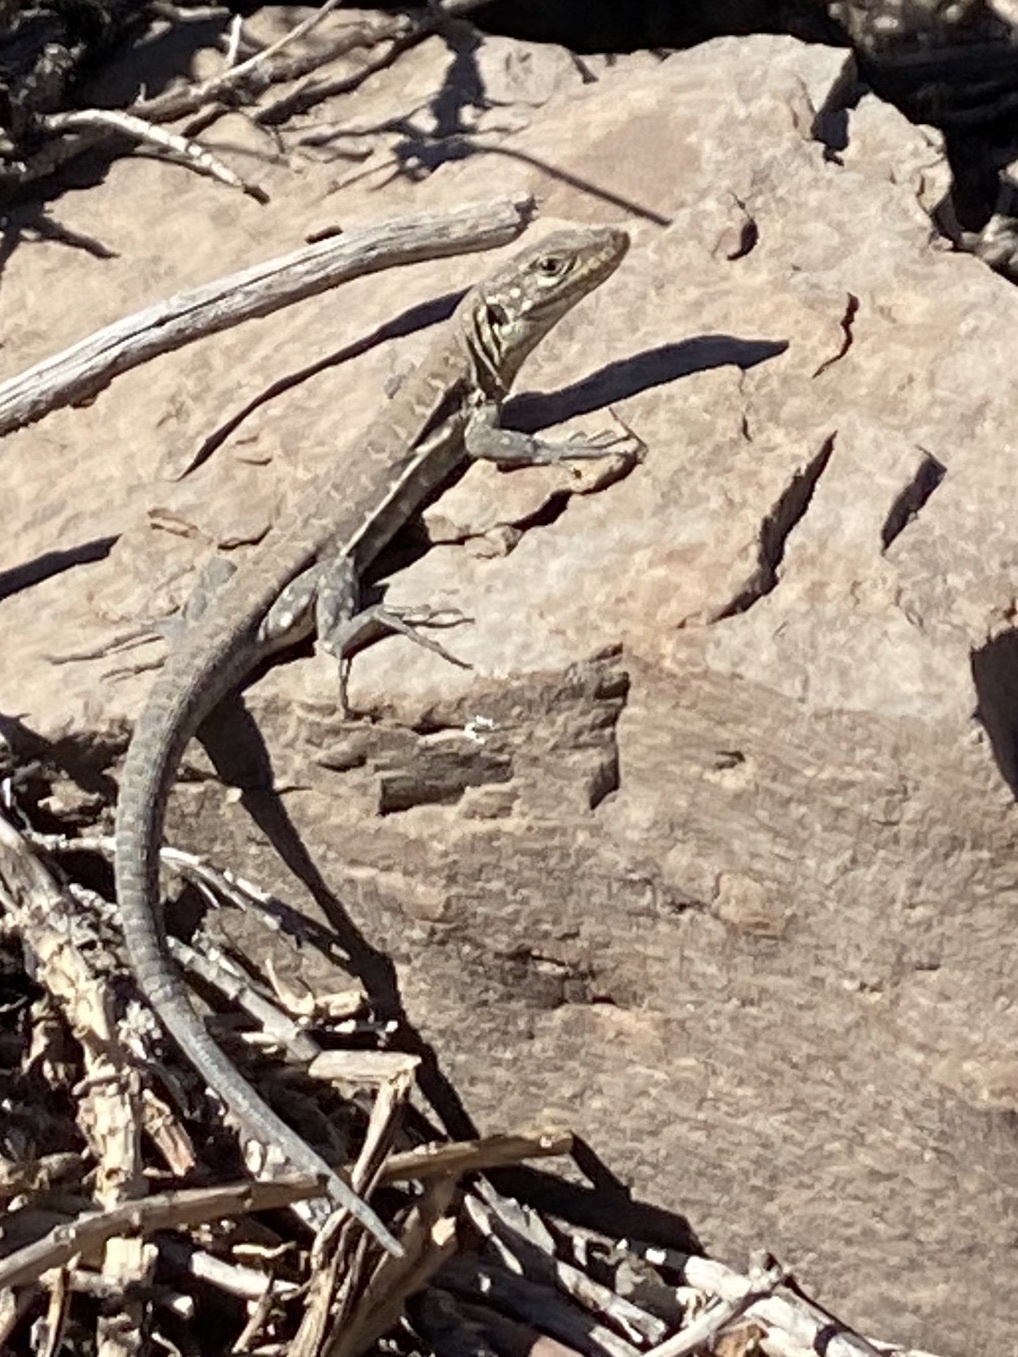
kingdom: Animalia
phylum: Chordata
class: Squamata
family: Lacertidae
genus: Gallotia
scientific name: Gallotia galloti
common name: Gallot's lizard
